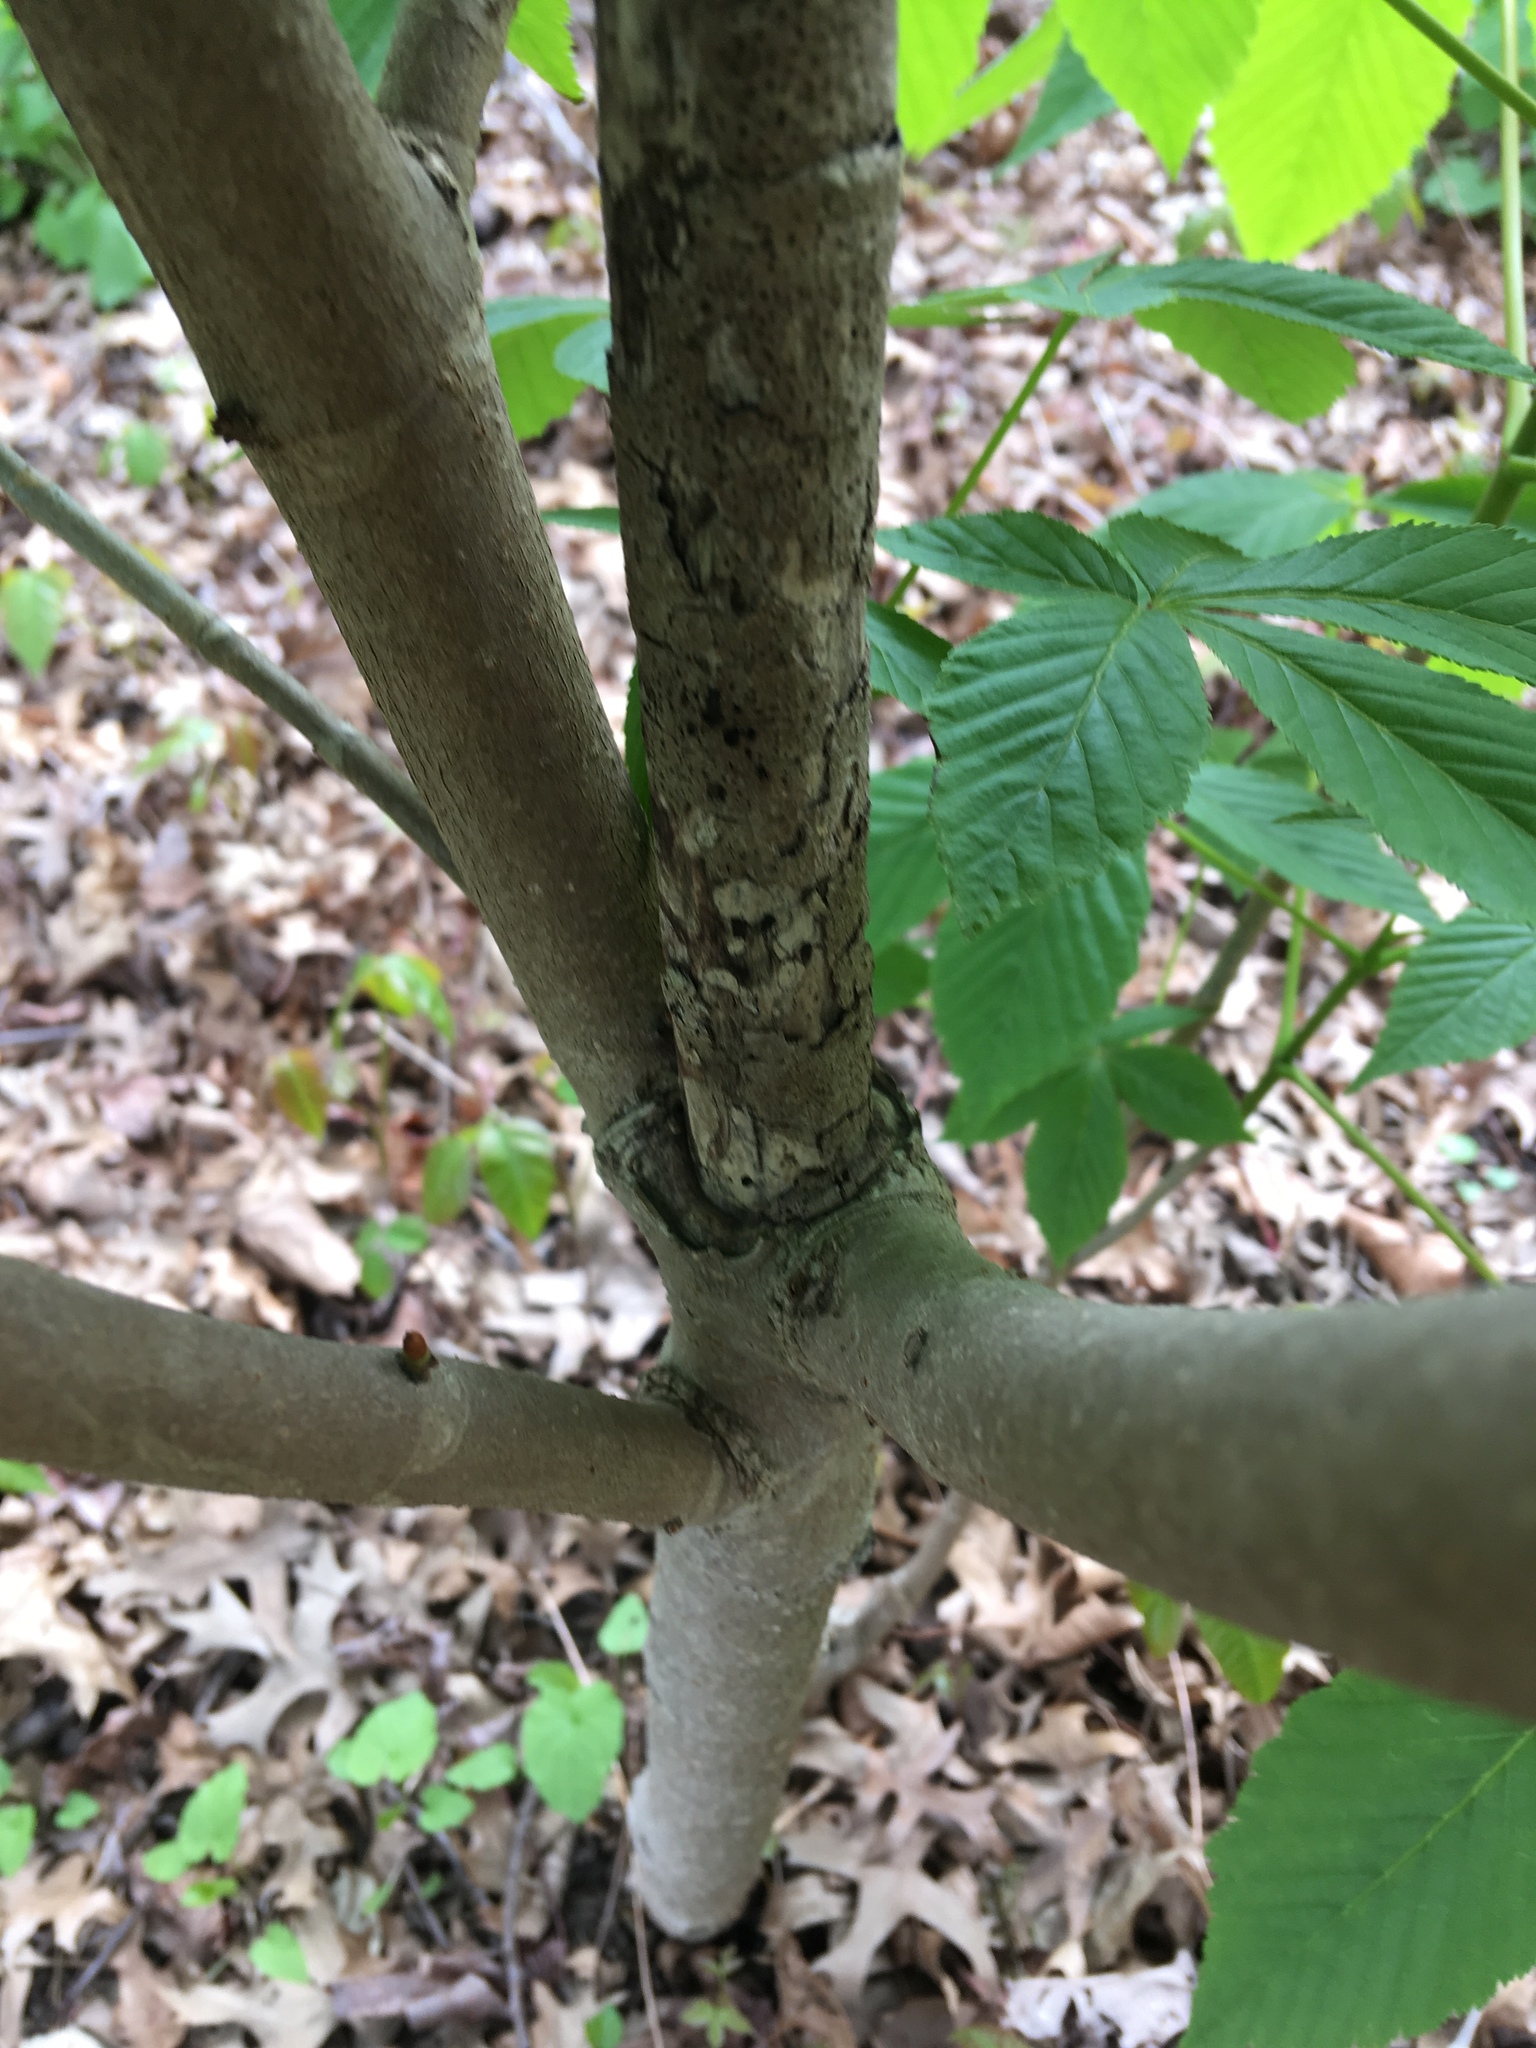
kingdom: Plantae
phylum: Tracheophyta
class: Magnoliopsida
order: Sapindales
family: Sapindaceae
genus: Aesculus
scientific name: Aesculus glabra
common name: Ohio buckeye
